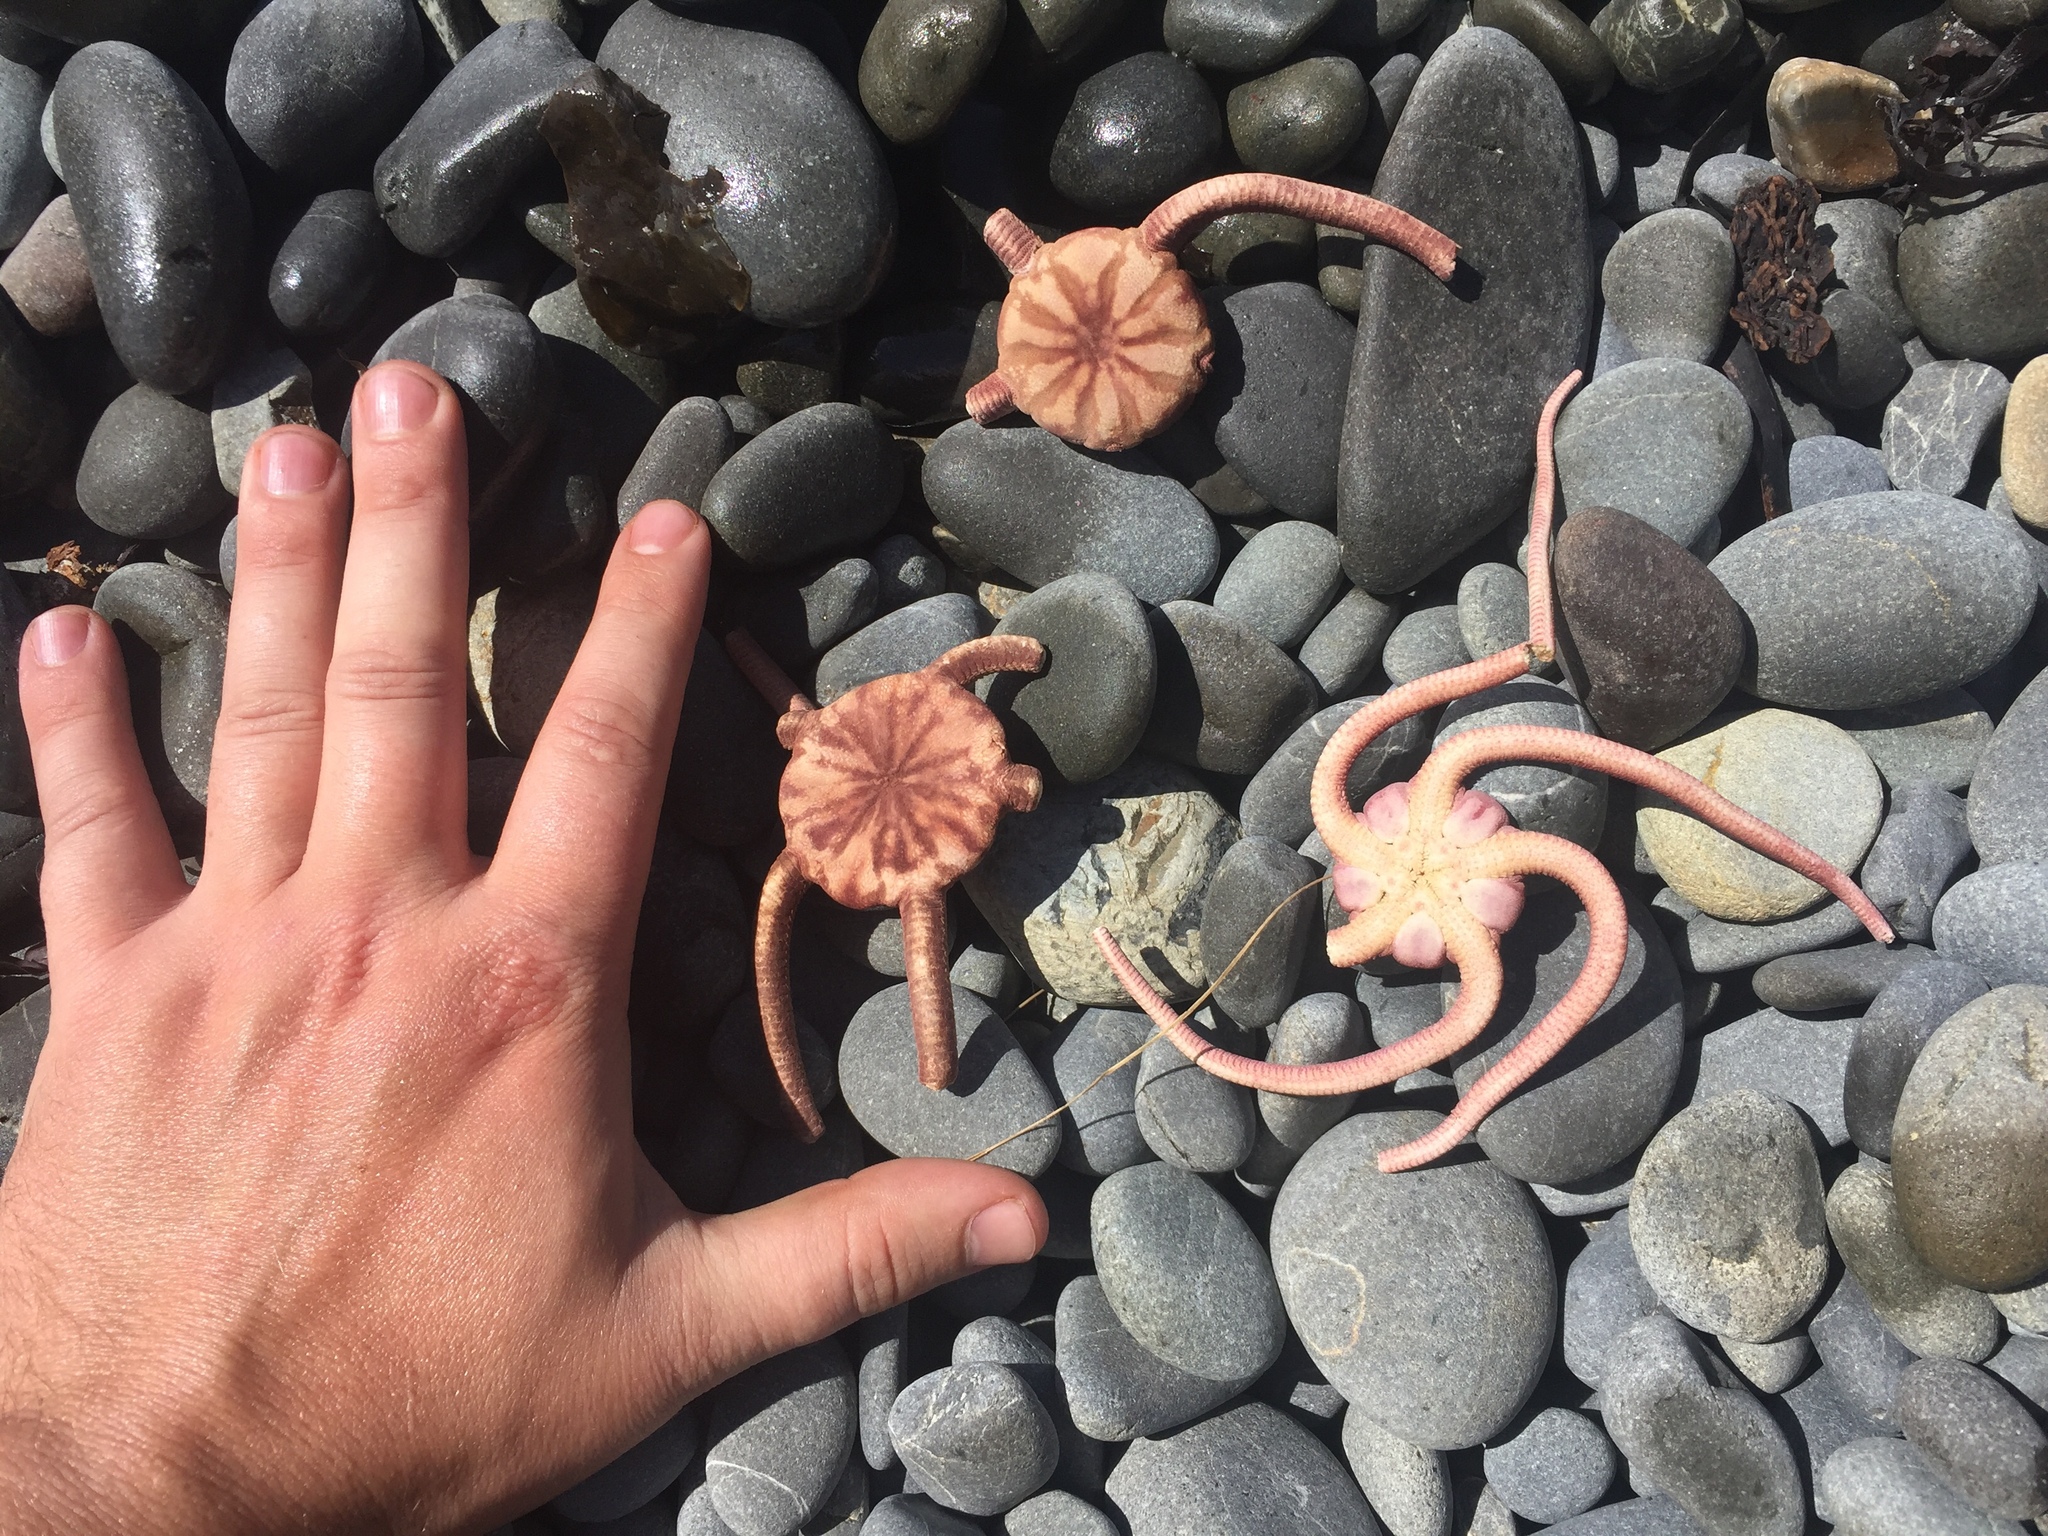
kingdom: Animalia
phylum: Echinodermata
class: Ophiuroidea
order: Ophiacanthida
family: Ophiodermatidae
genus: Ophiopsammus
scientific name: Ophiopsammus maculata
